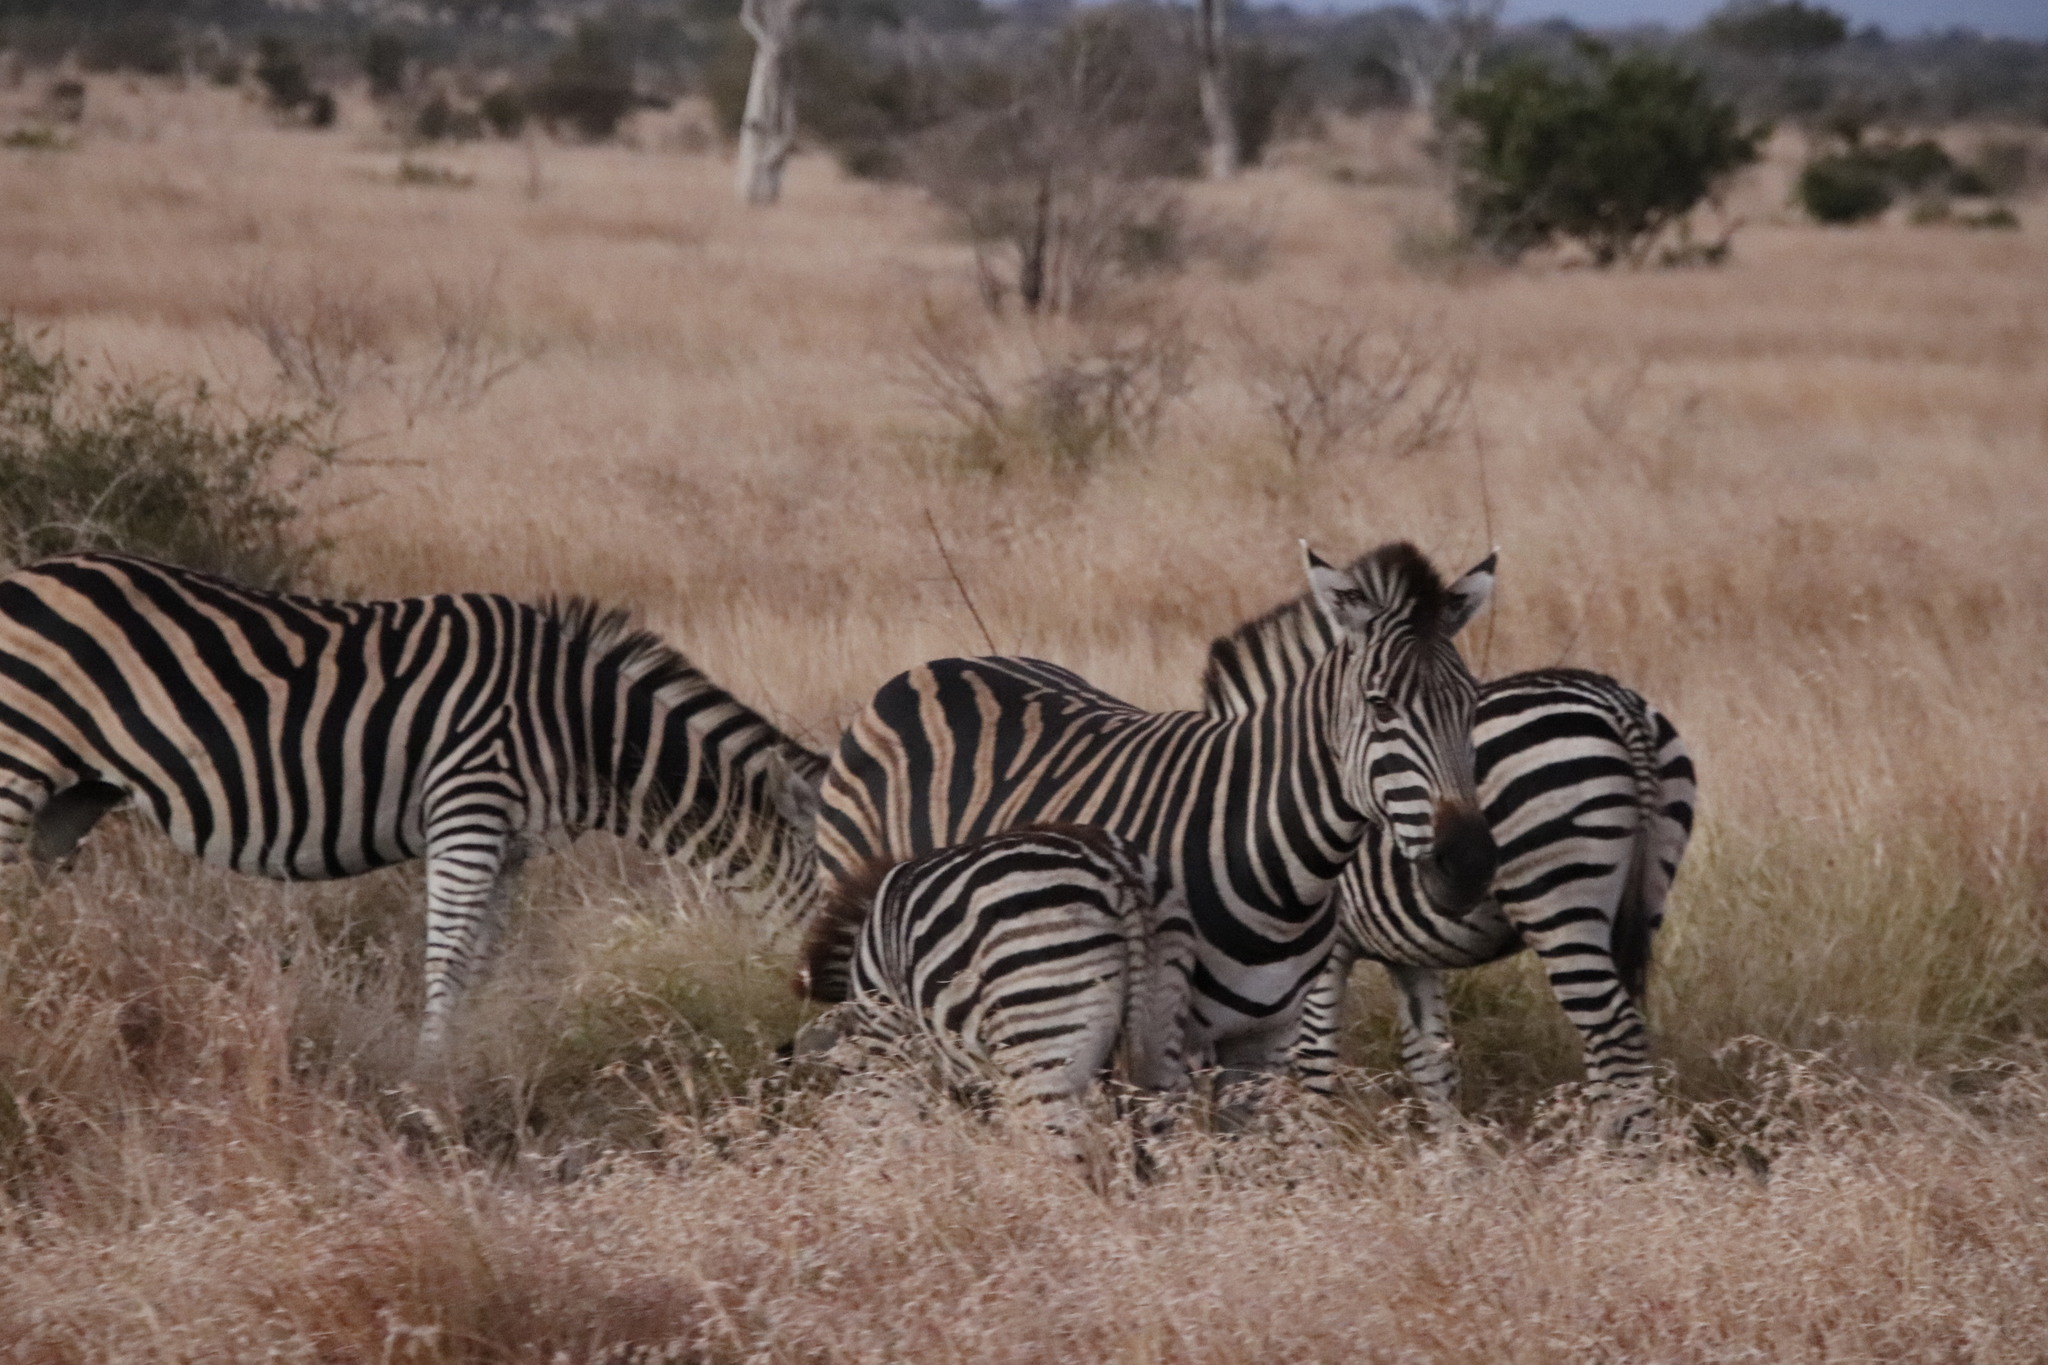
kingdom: Animalia
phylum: Chordata
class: Mammalia
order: Perissodactyla
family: Equidae
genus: Equus
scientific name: Equus quagga
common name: Plains zebra
